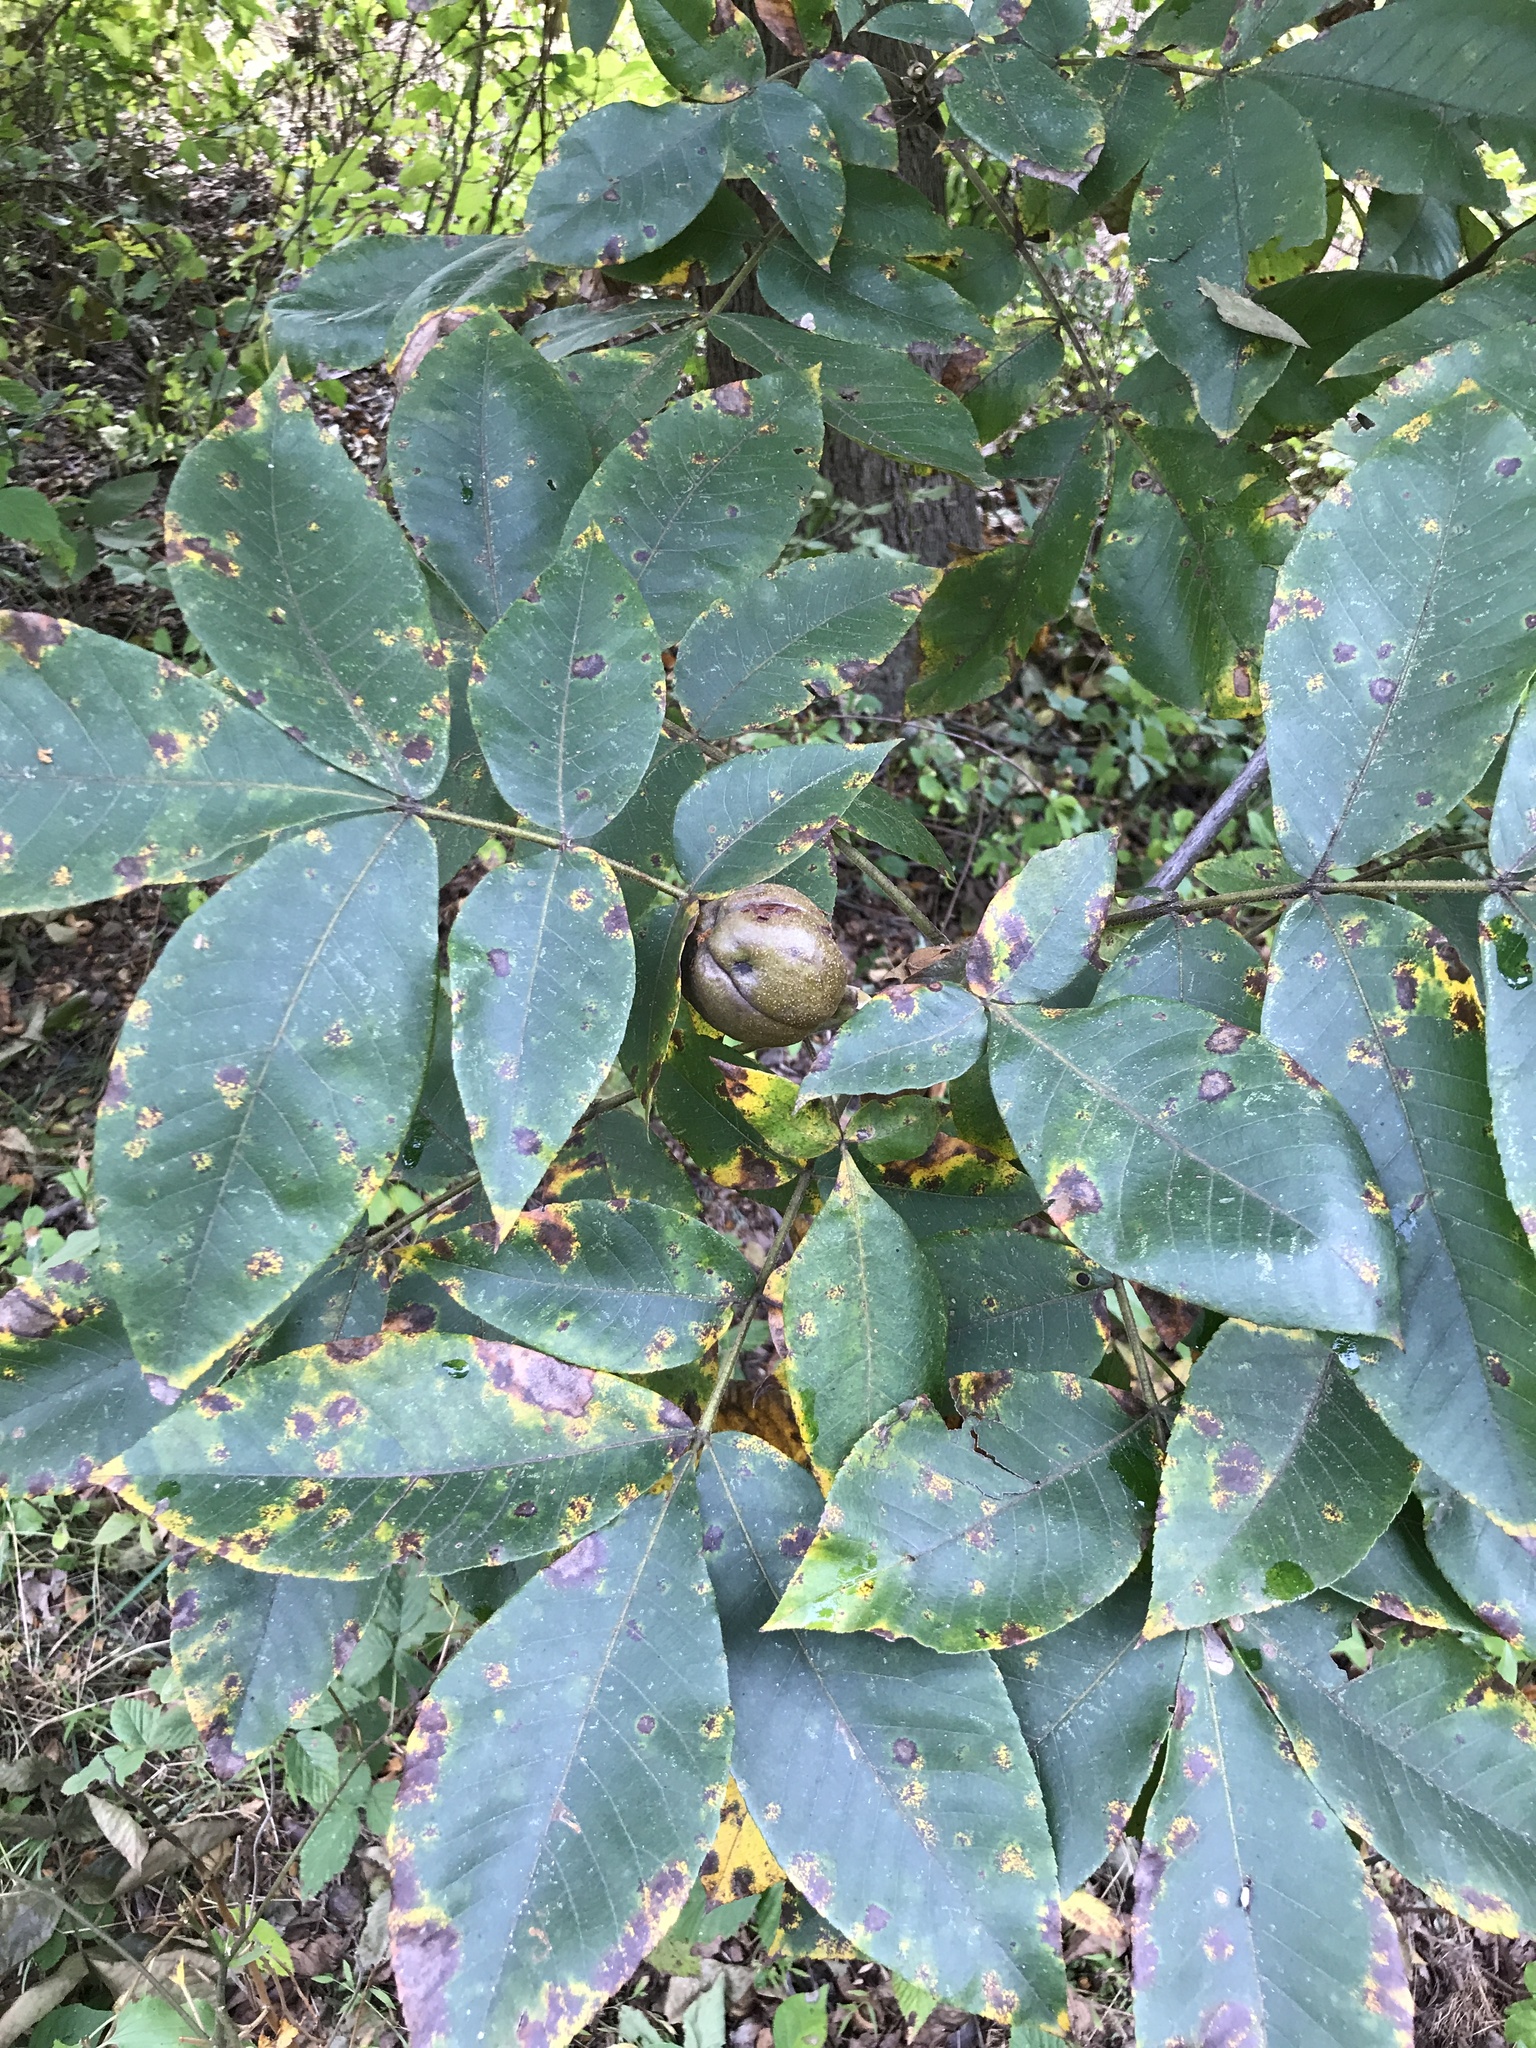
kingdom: Plantae
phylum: Tracheophyta
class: Magnoliopsida
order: Fagales
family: Juglandaceae
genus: Carya
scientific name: Carya cordiformis
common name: Bitternut hickory
